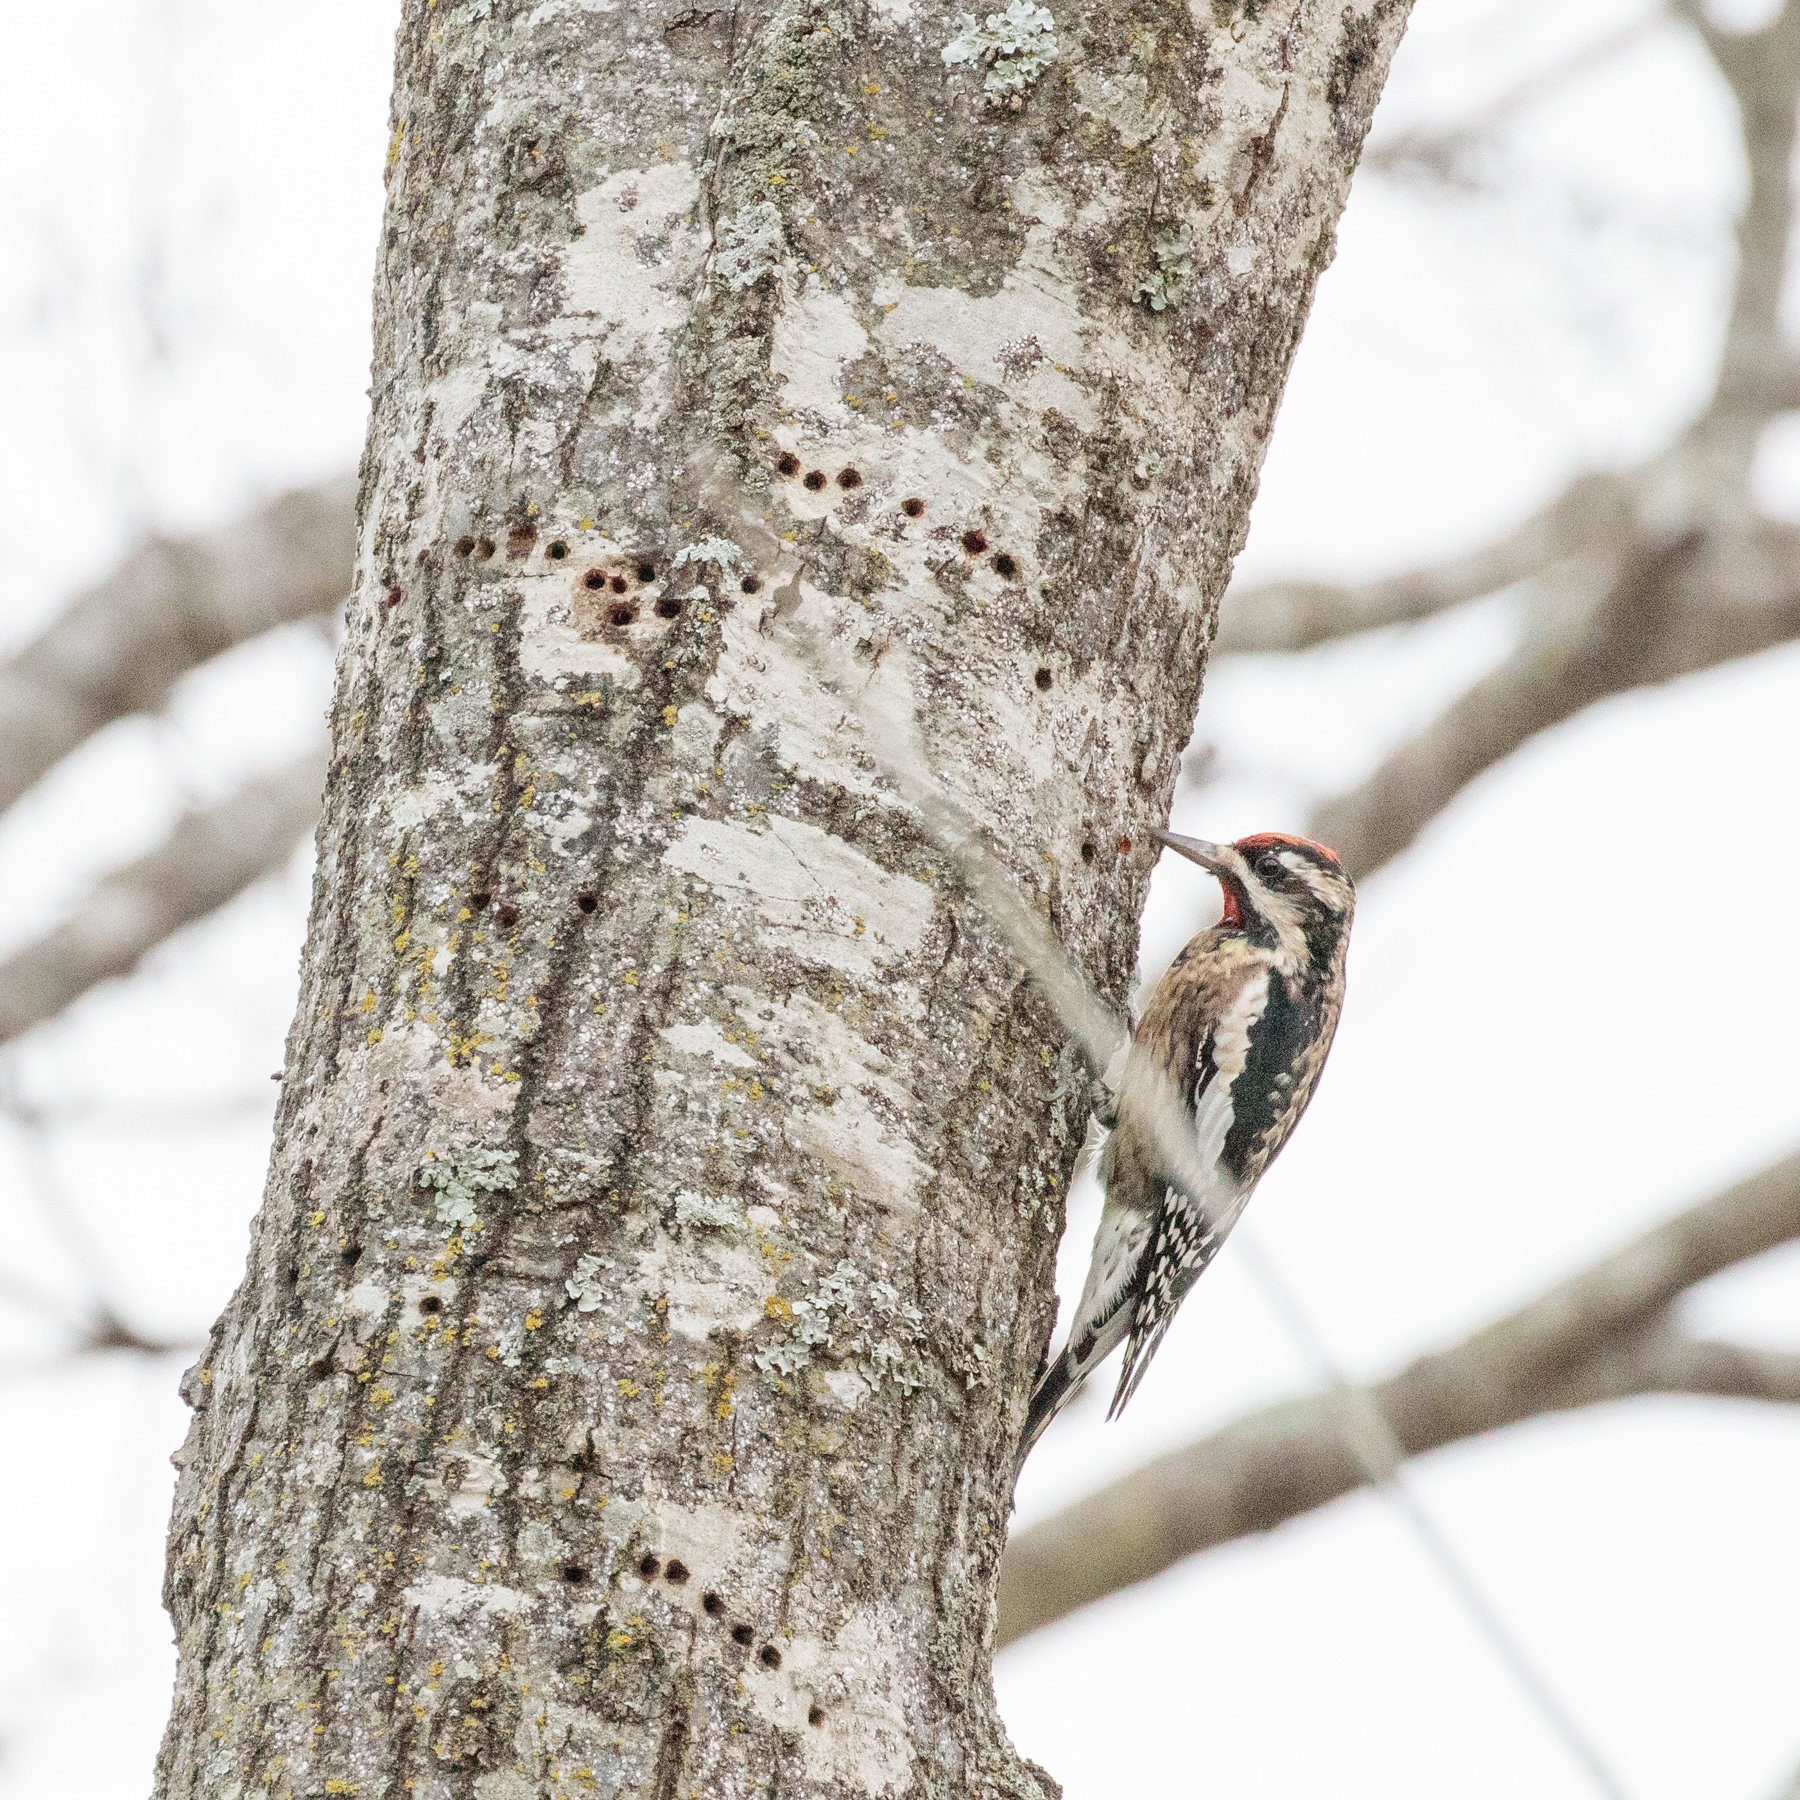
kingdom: Animalia
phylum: Chordata
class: Aves
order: Piciformes
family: Picidae
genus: Sphyrapicus
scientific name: Sphyrapicus varius
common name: Yellow-bellied sapsucker
